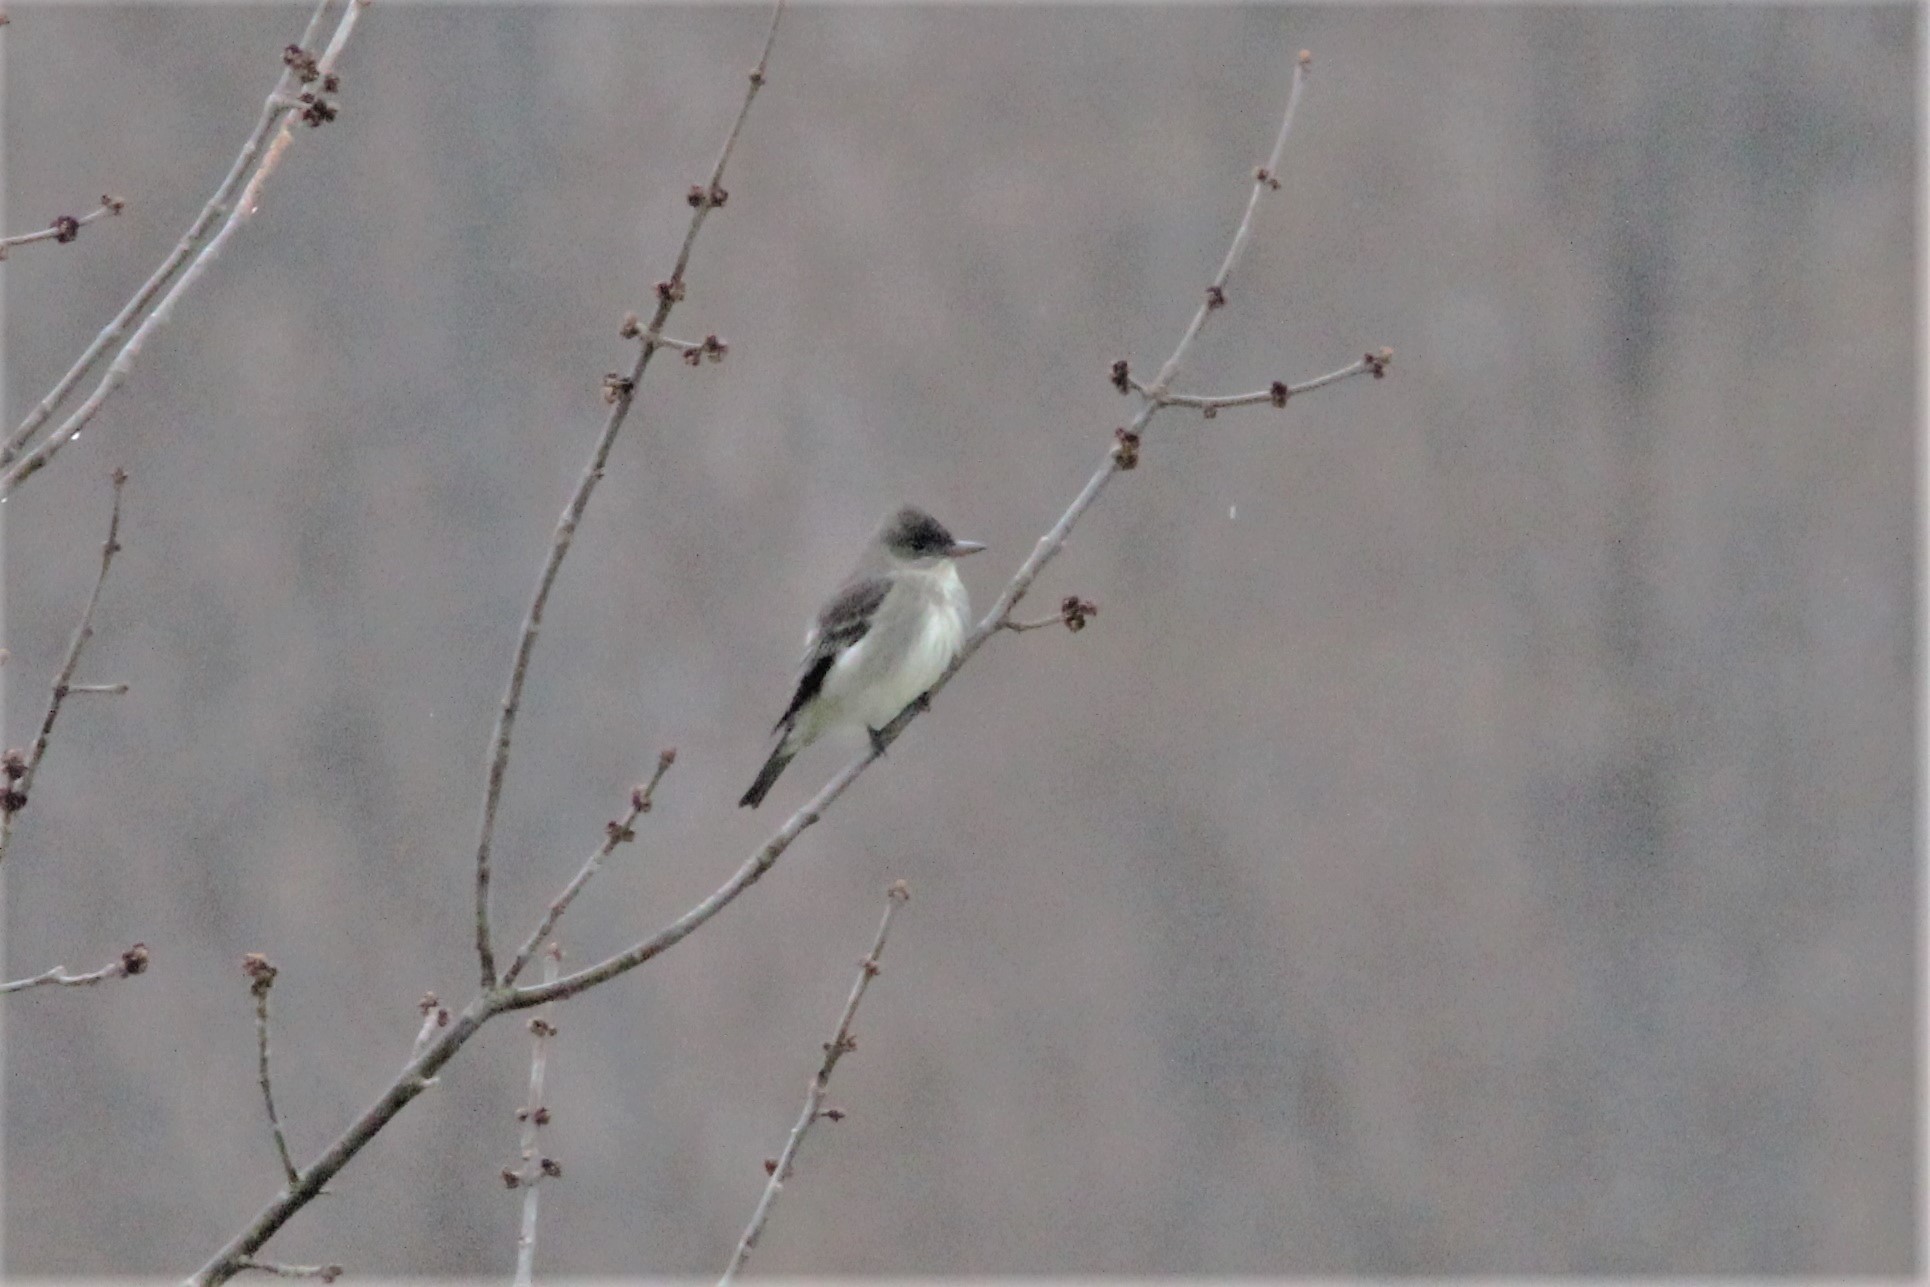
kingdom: Animalia
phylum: Chordata
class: Aves
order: Passeriformes
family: Tyrannidae
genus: Contopus
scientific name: Contopus cooperi
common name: Olive-sided flycatcher
